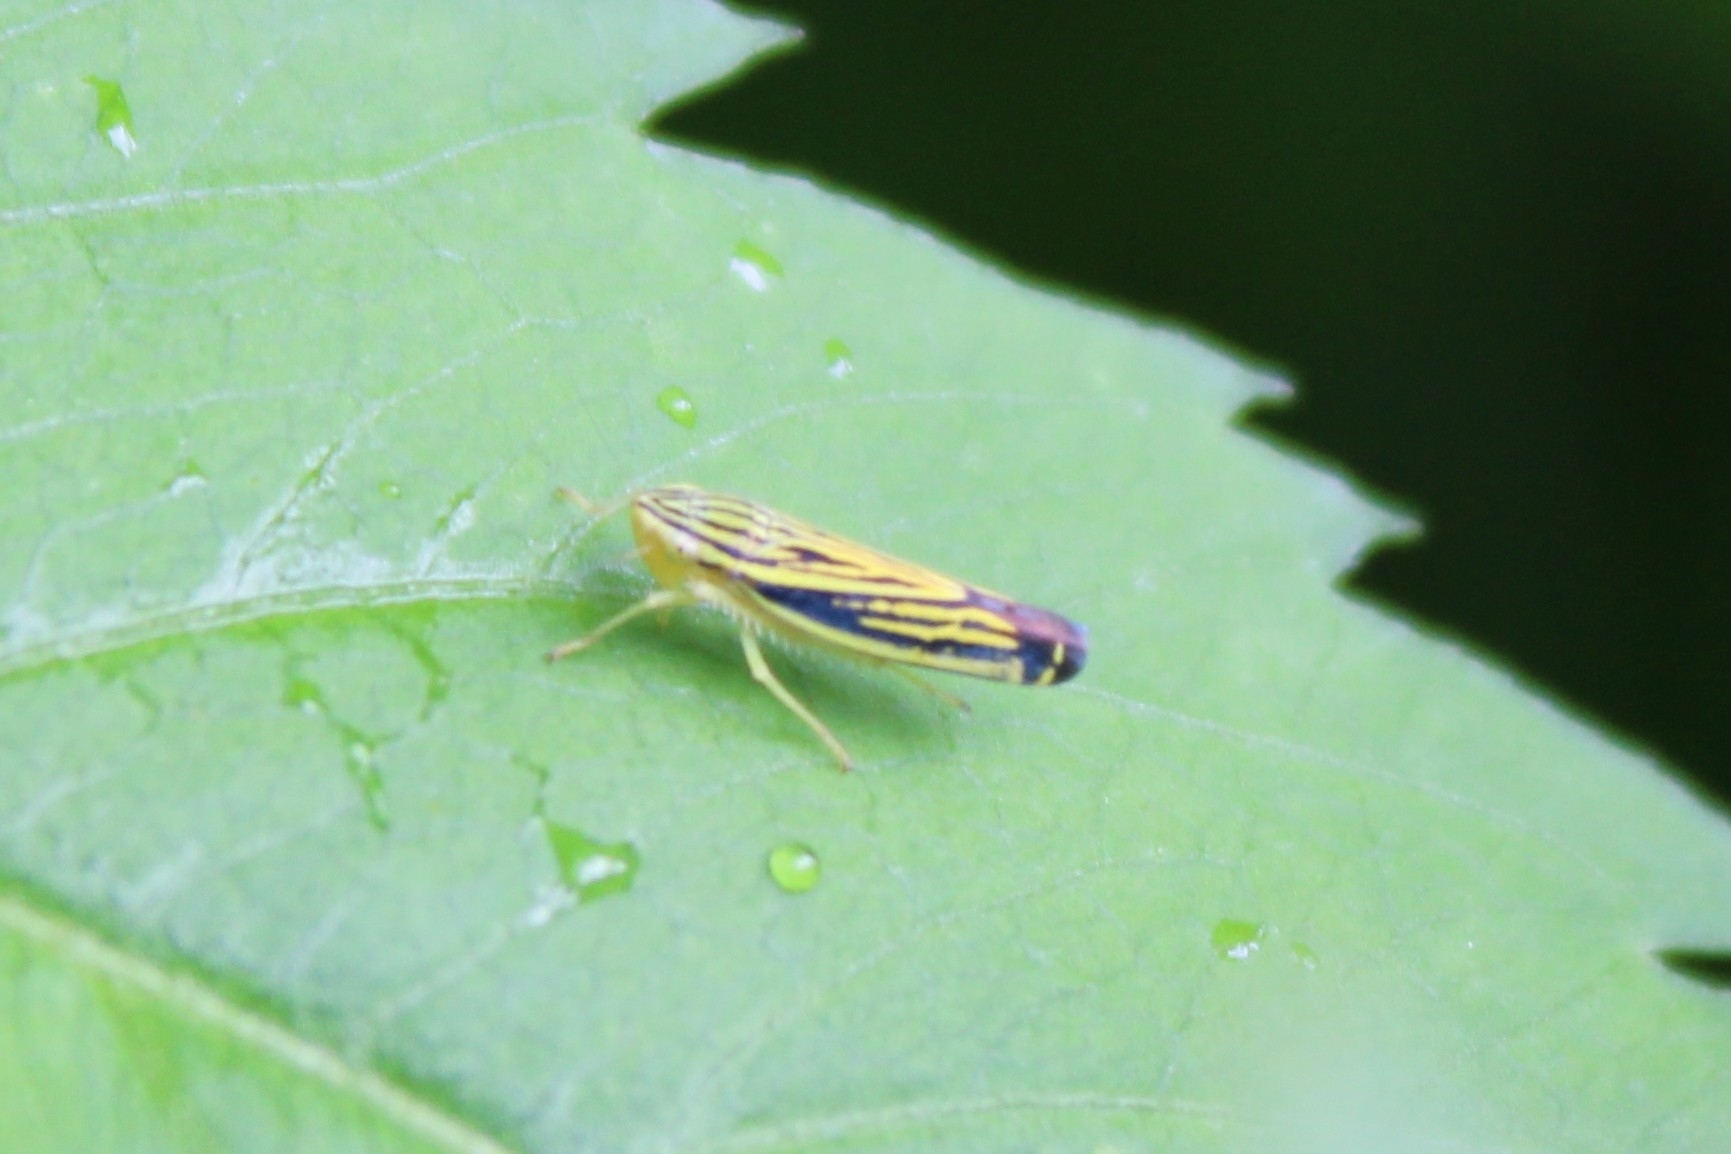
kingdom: Animalia
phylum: Arthropoda
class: Insecta
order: Hemiptera
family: Cicadellidae
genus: Sibovia
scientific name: Sibovia occatoria
